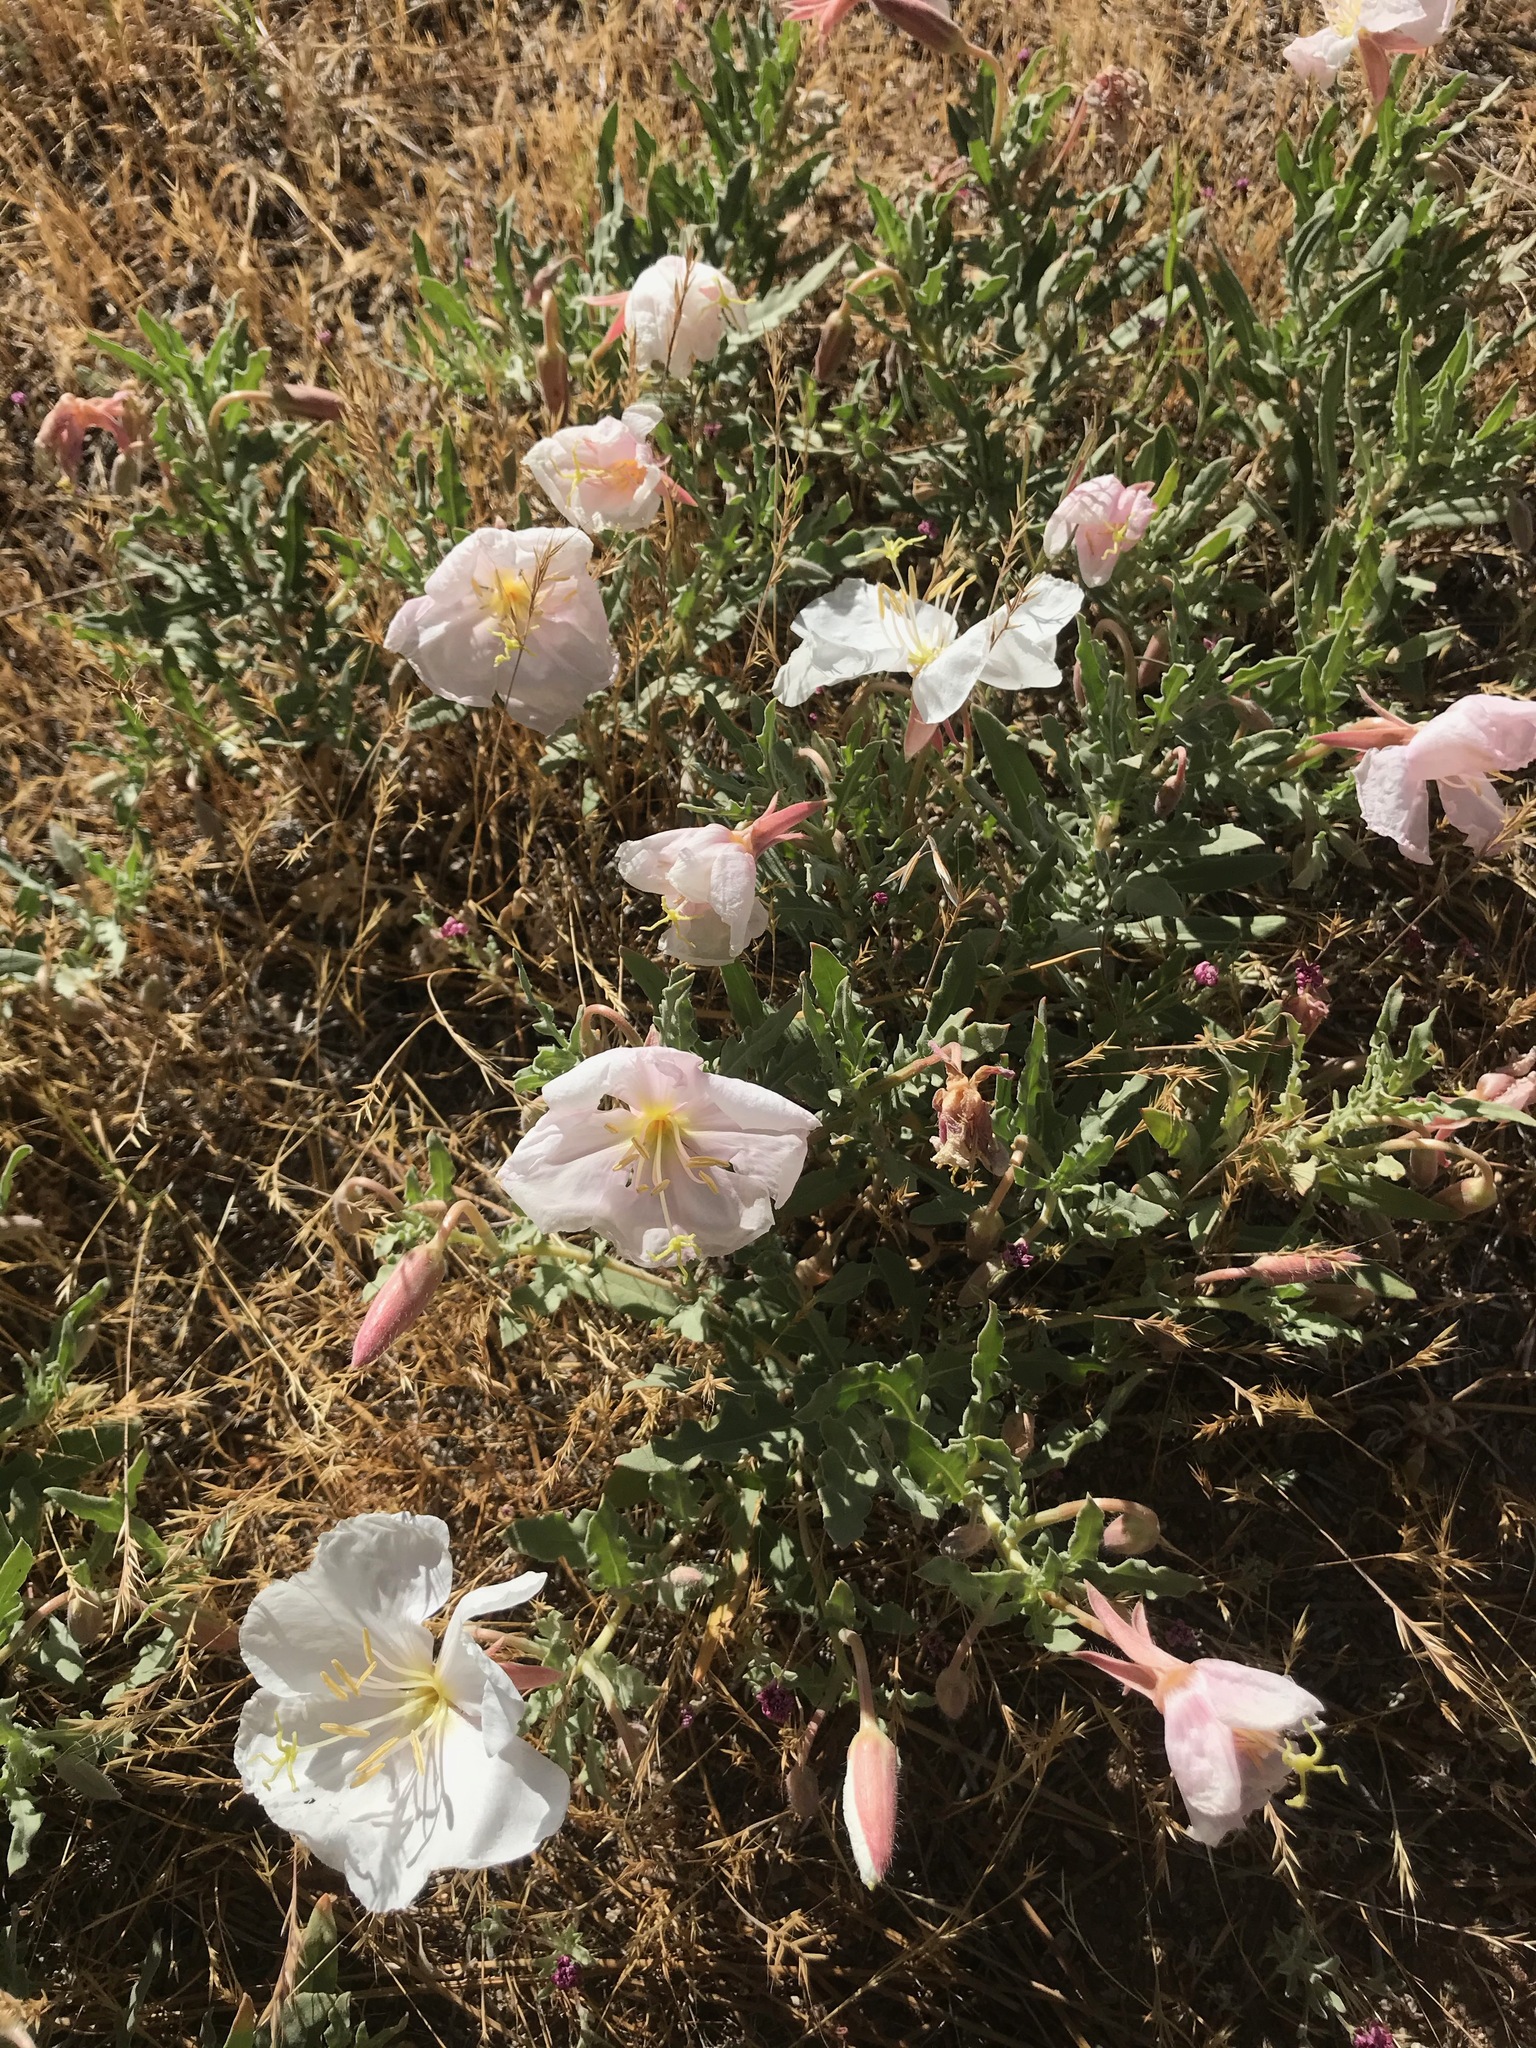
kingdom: Plantae
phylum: Tracheophyta
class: Magnoliopsida
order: Myrtales
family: Onagraceae
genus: Oenothera
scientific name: Oenothera californica
